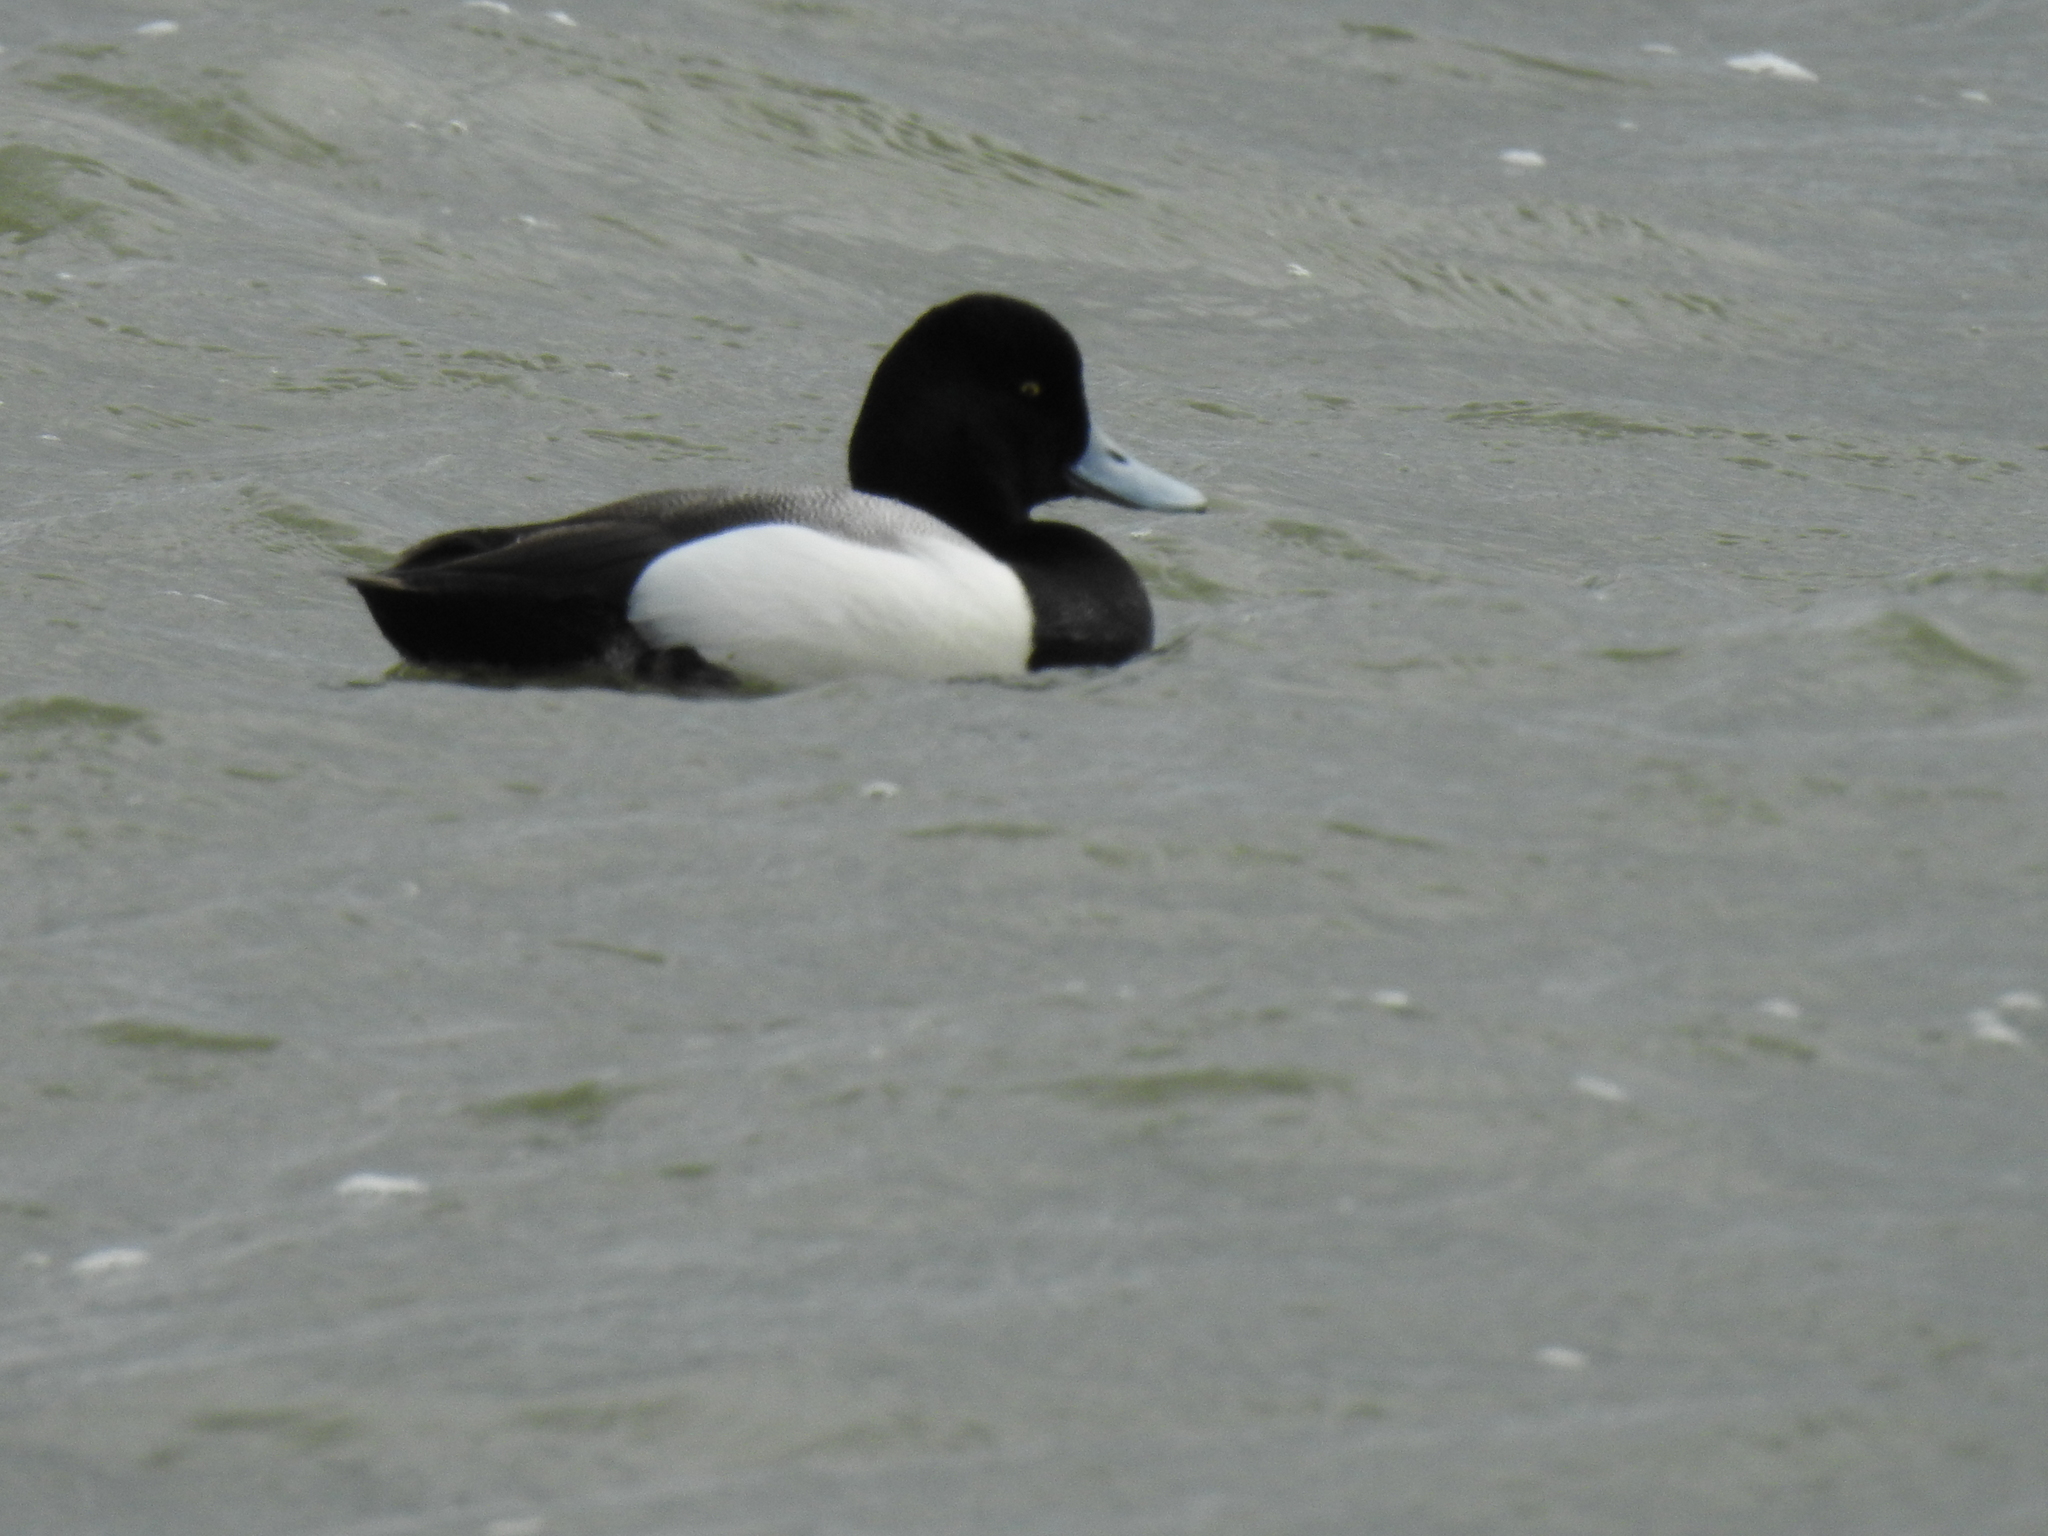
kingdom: Animalia
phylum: Chordata
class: Aves
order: Anseriformes
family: Anatidae
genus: Aythya
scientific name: Aythya affinis
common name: Lesser scaup
